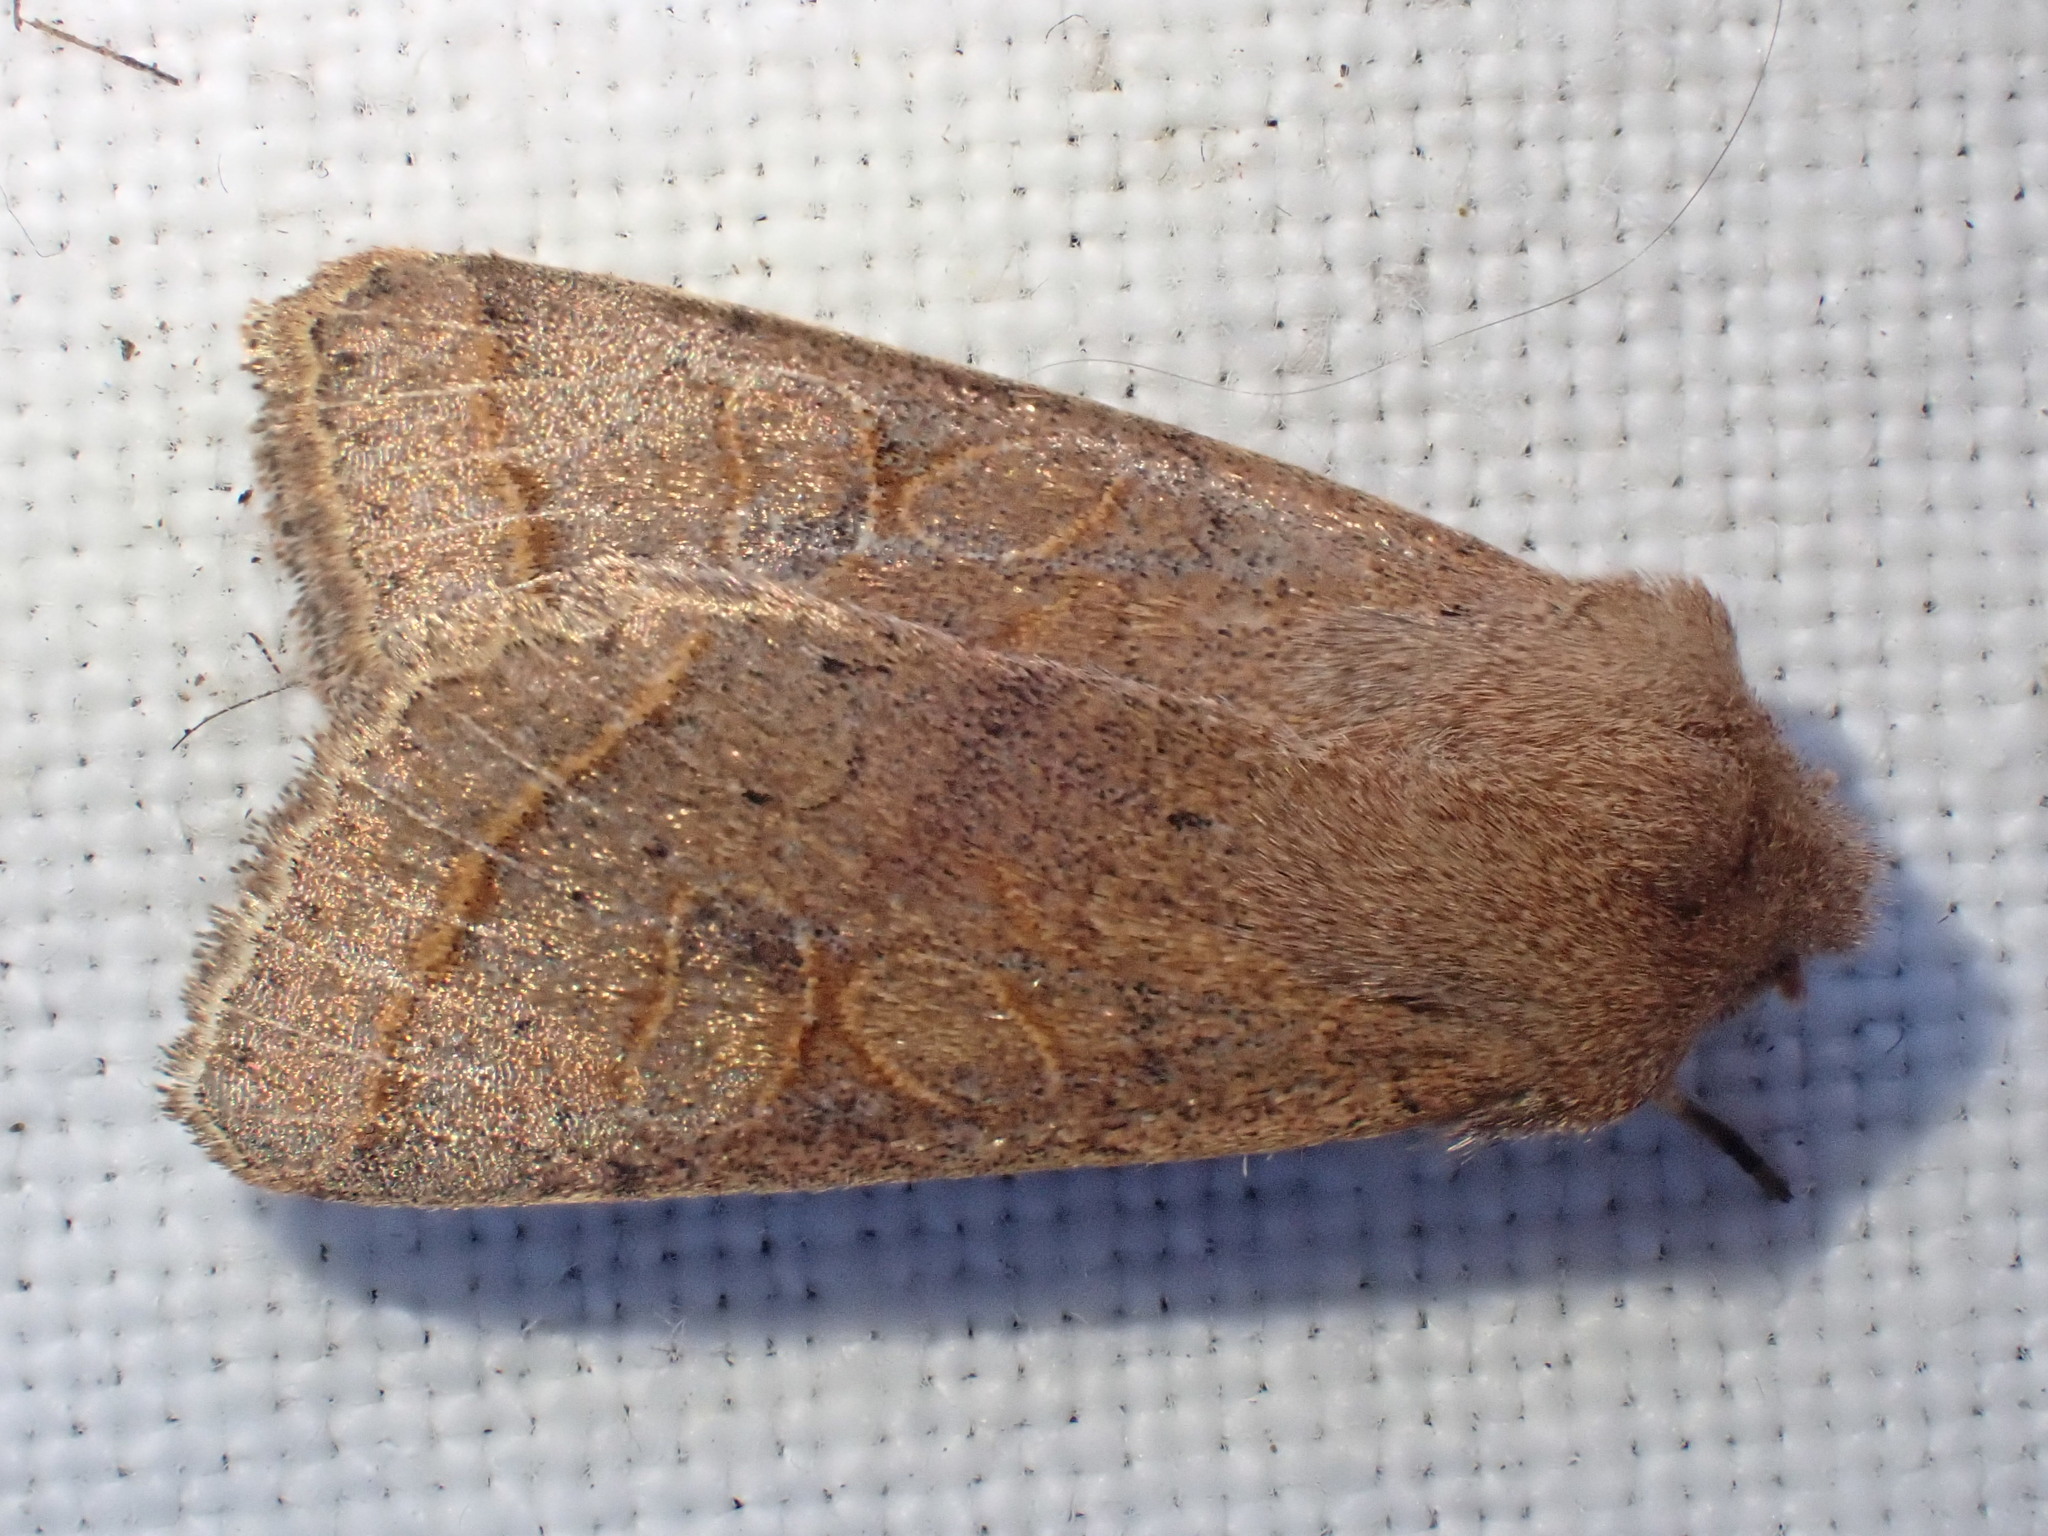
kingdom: Animalia
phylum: Arthropoda
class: Insecta
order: Lepidoptera
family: Noctuidae
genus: Orthosia
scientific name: Orthosia cerasi
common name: Common quaker
